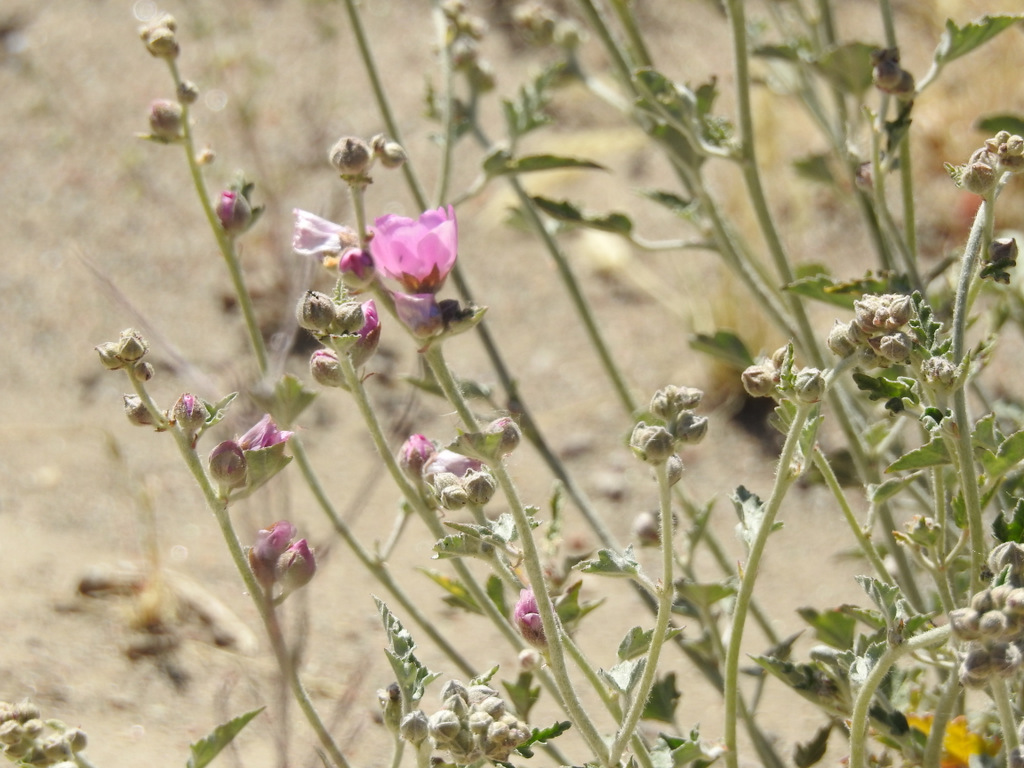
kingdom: Plantae
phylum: Tracheophyta
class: Magnoliopsida
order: Malvales
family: Malvaceae
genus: Sphaeralcea
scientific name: Sphaeralcea mendocina
